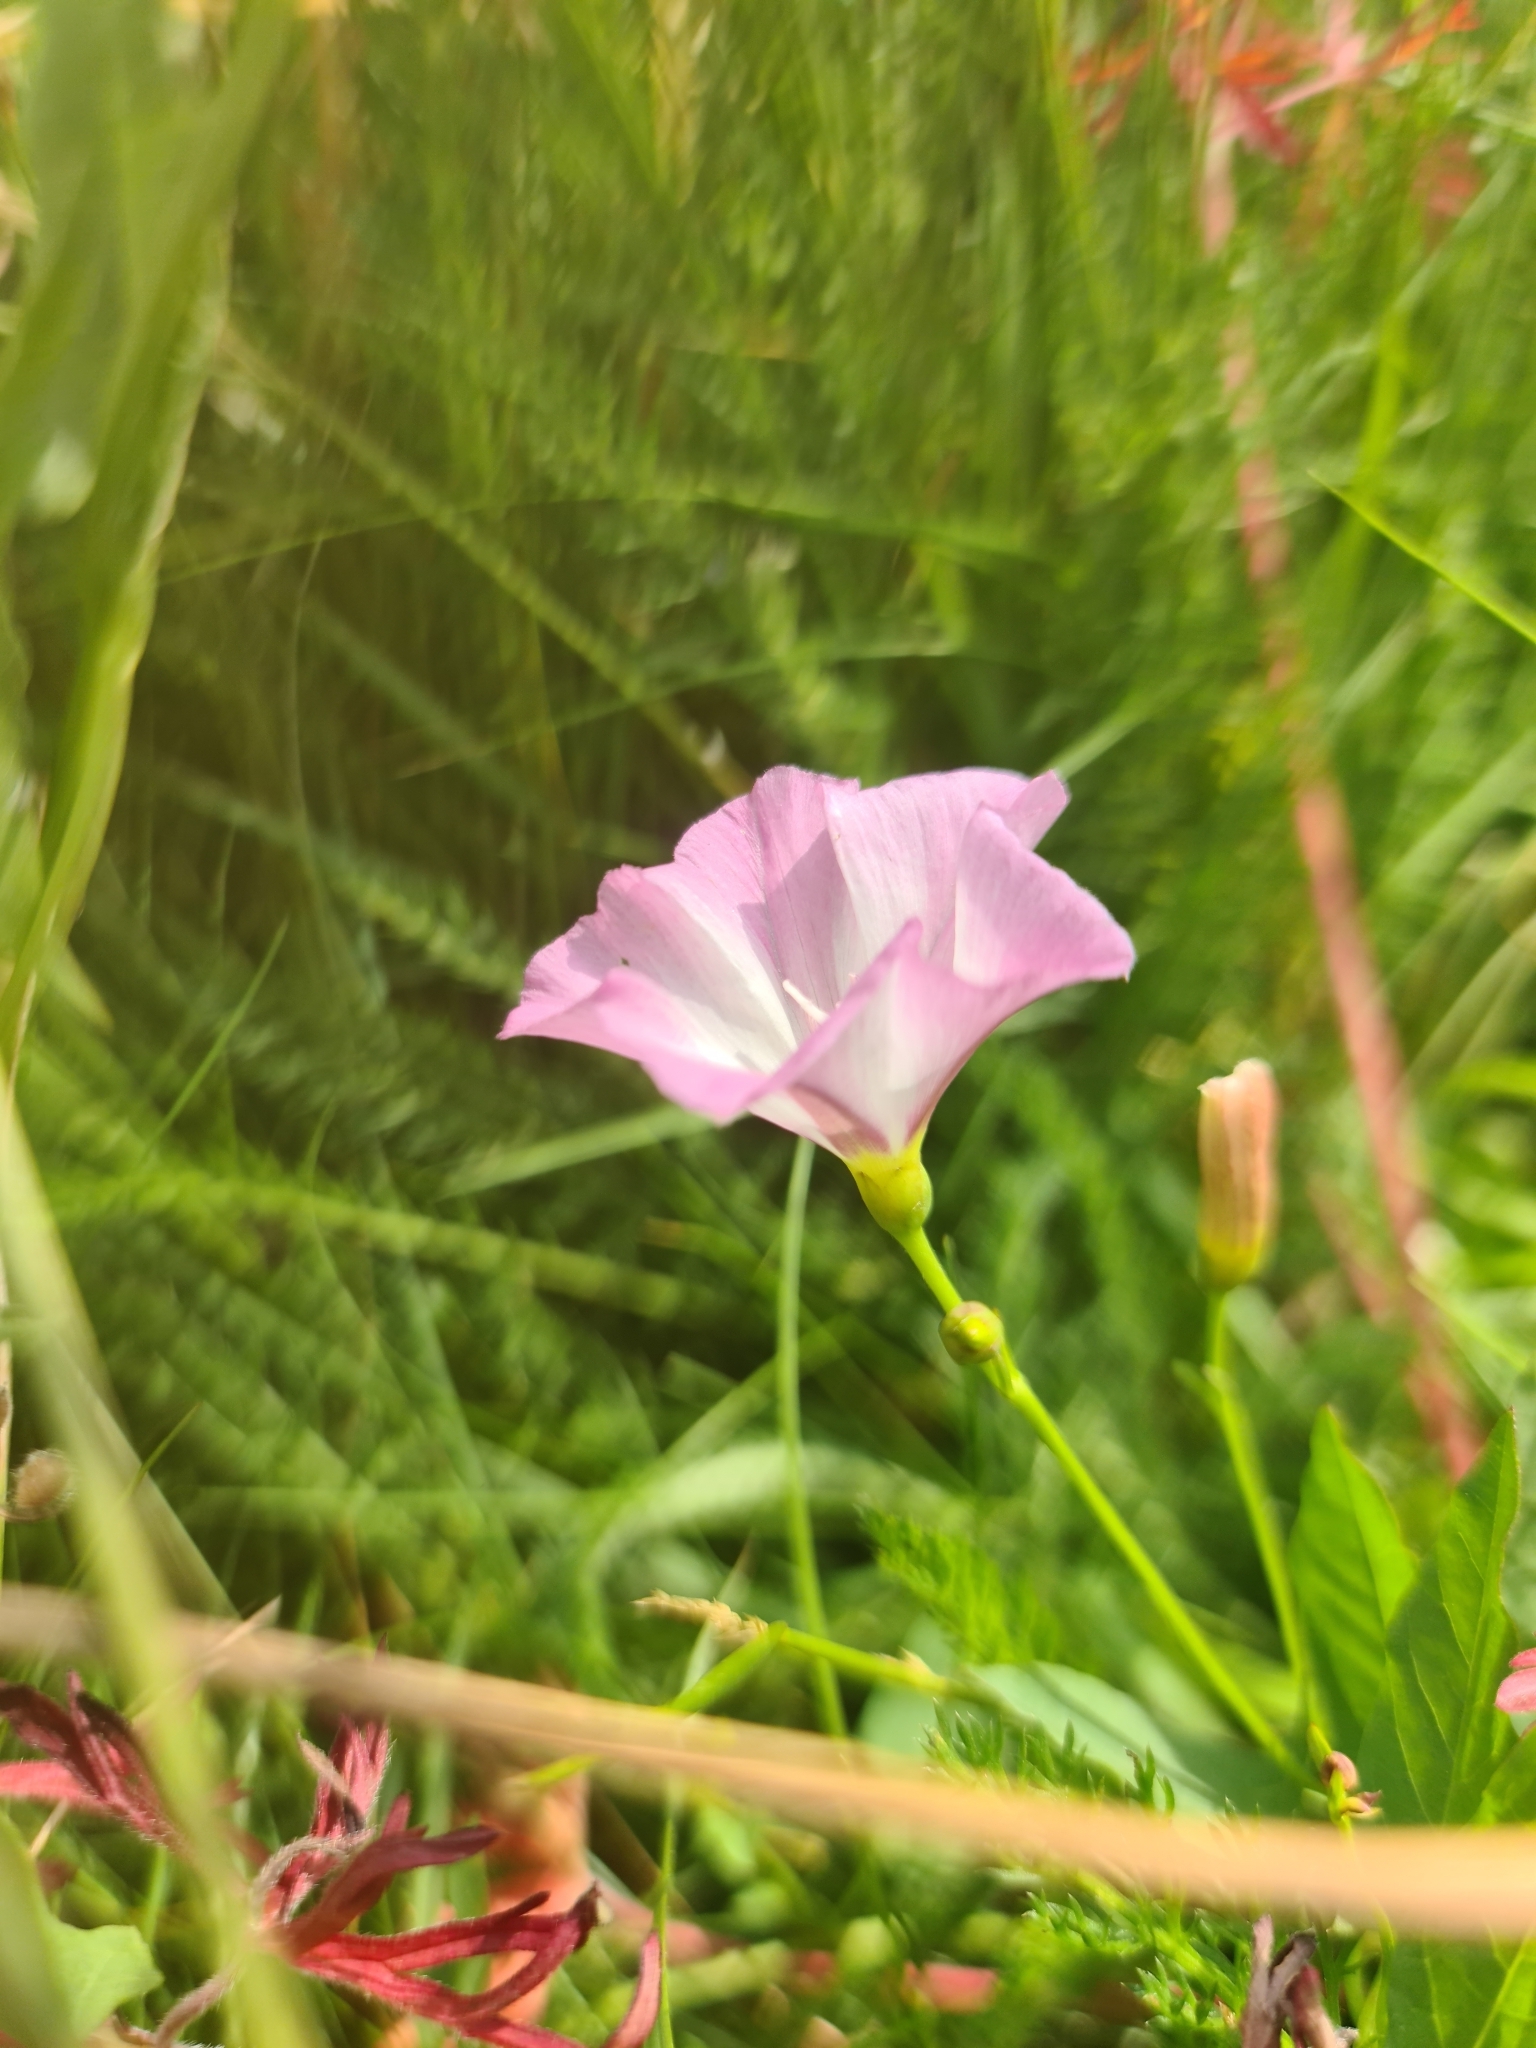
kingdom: Plantae
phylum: Tracheophyta
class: Magnoliopsida
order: Solanales
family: Convolvulaceae
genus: Convolvulus
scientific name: Convolvulus arvensis
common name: Field bindweed
